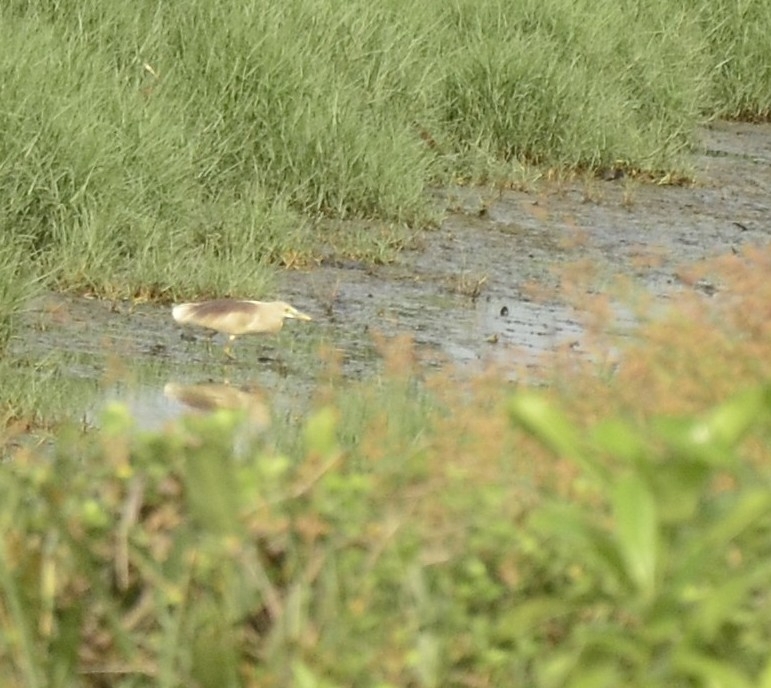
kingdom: Animalia
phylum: Chordata
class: Aves
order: Pelecaniformes
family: Ardeidae
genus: Ardeola
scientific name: Ardeola grayii
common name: Indian pond heron
